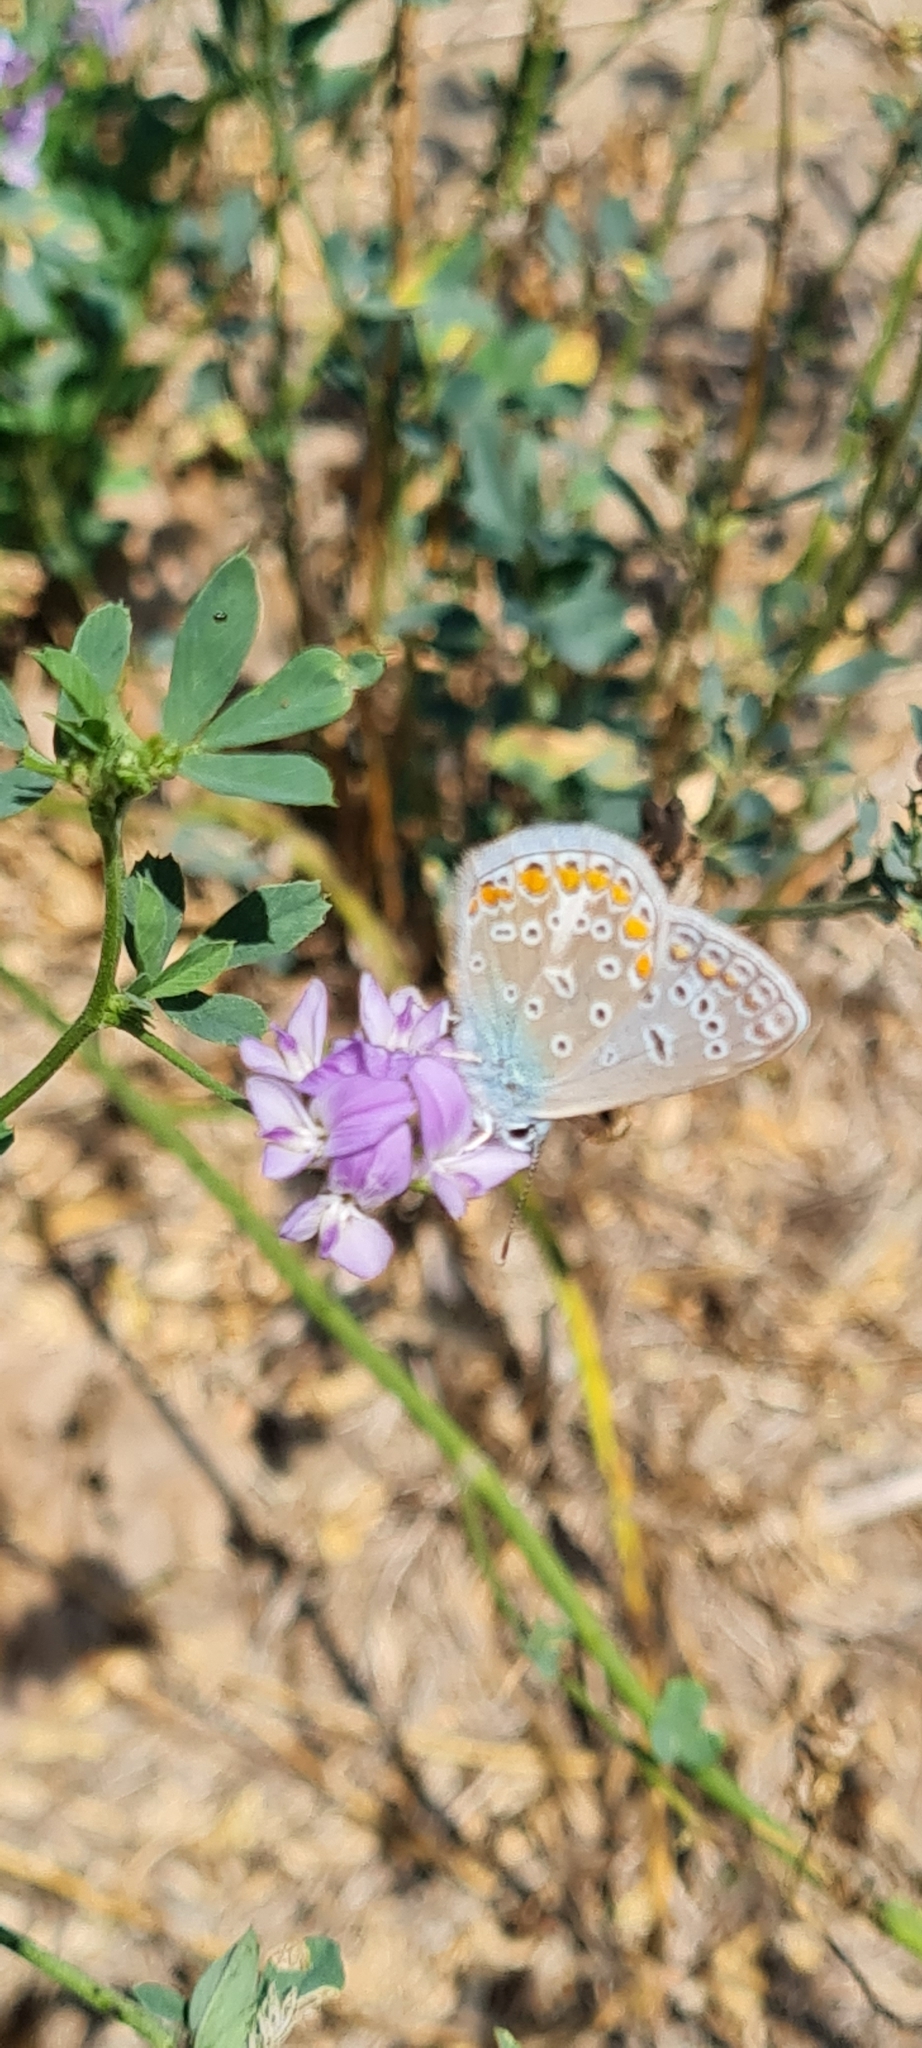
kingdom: Animalia
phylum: Arthropoda
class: Insecta
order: Lepidoptera
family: Lycaenidae
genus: Polyommatus
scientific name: Polyommatus icarus
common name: Common blue
